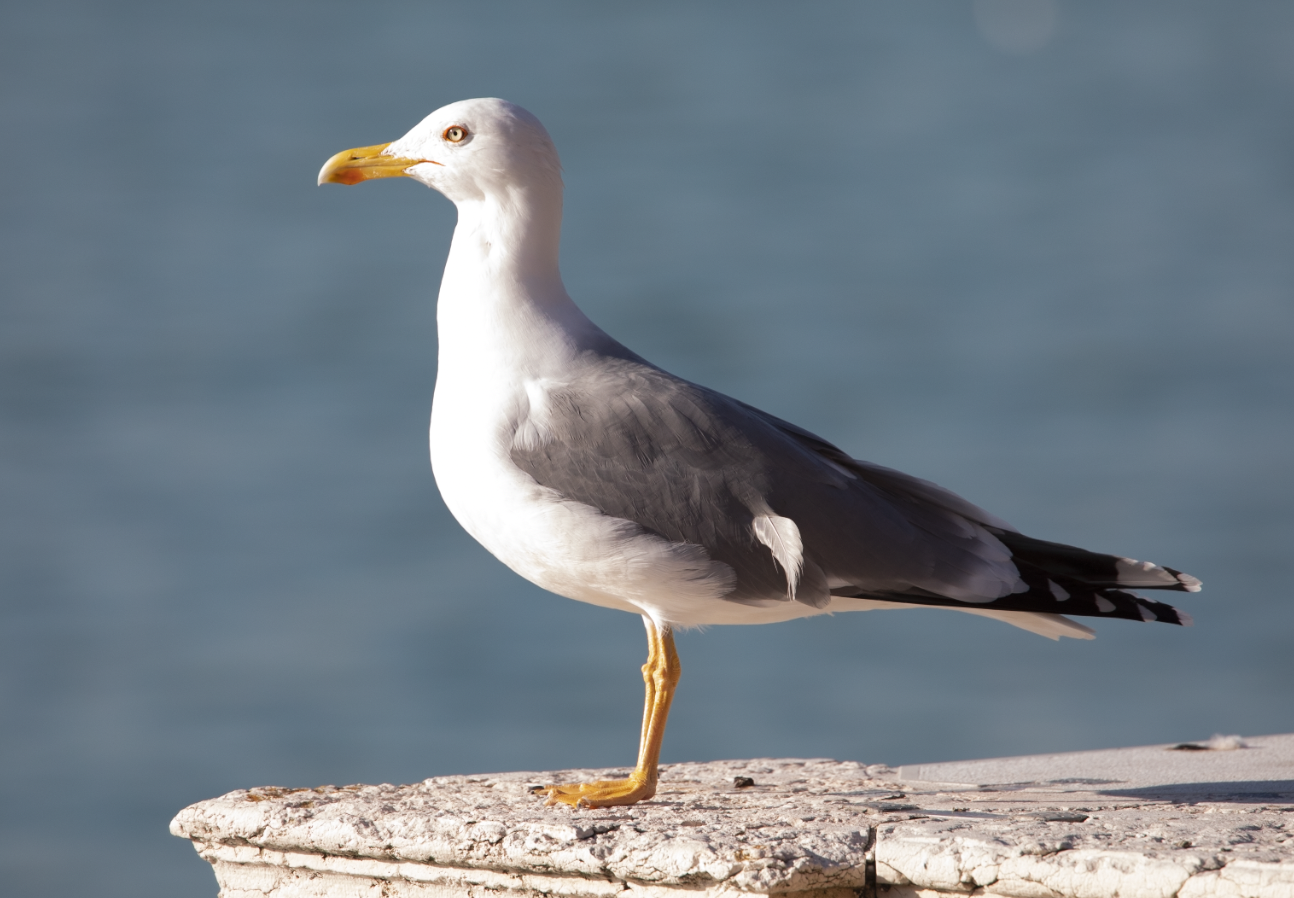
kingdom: Animalia
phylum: Chordata
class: Aves
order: Charadriiformes
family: Laridae
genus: Larus
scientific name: Larus michahellis
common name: Yellow-legged gull
